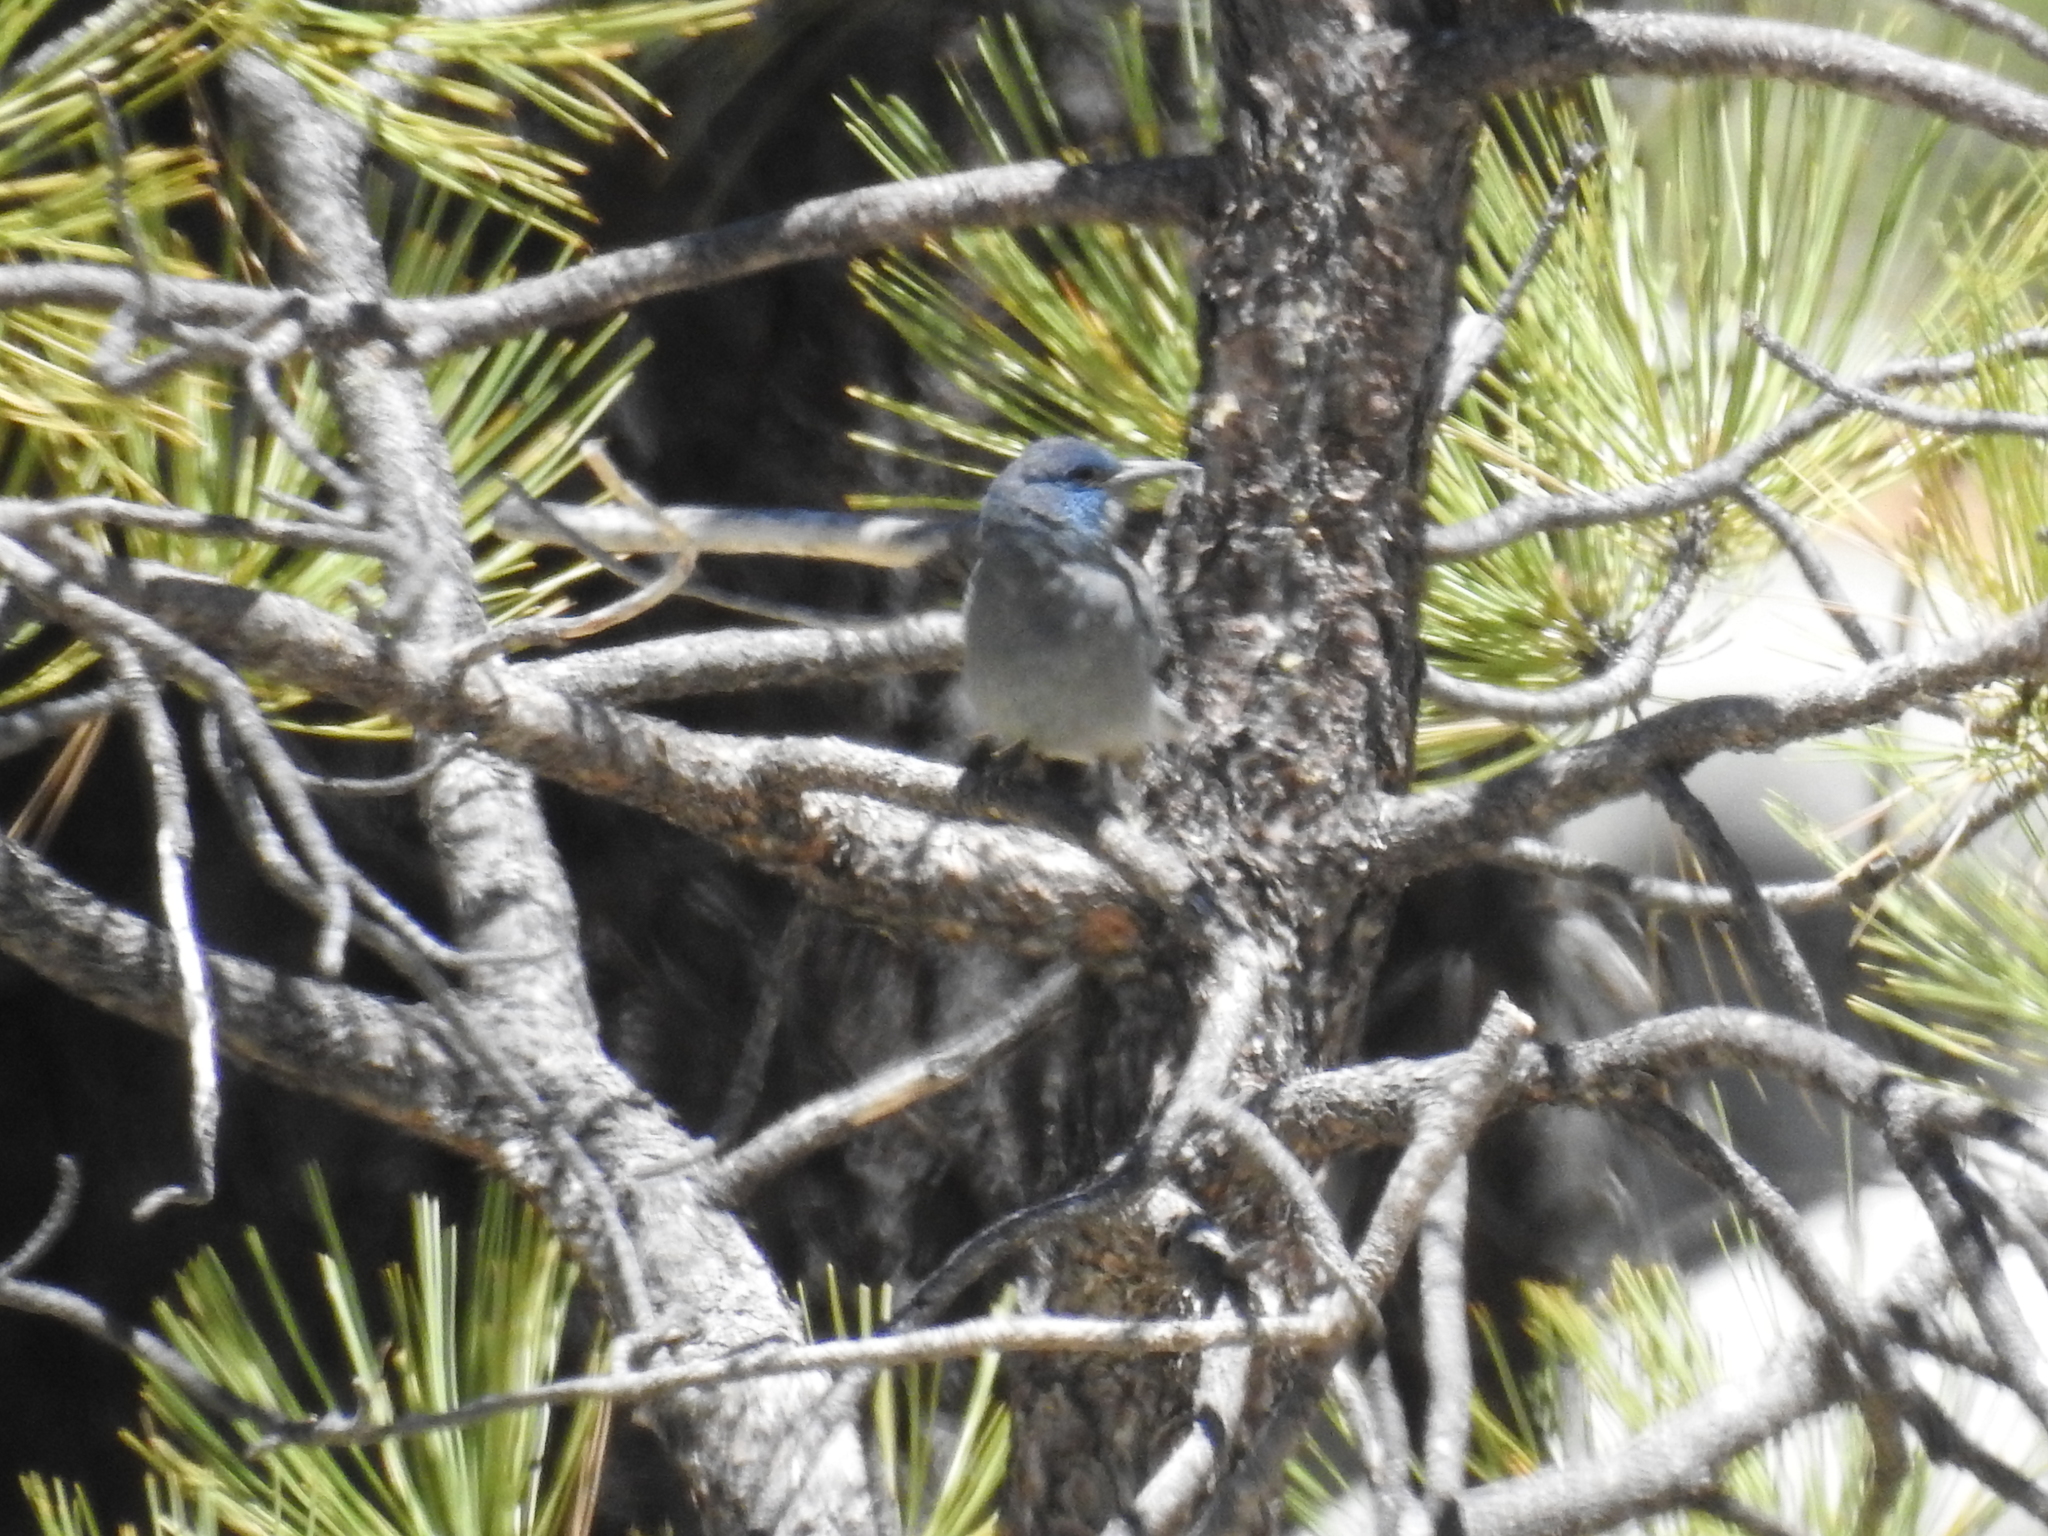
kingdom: Animalia
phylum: Chordata
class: Aves
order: Passeriformes
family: Corvidae
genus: Gymnorhinus
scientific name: Gymnorhinus cyanocephalus
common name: Pinyon jay
